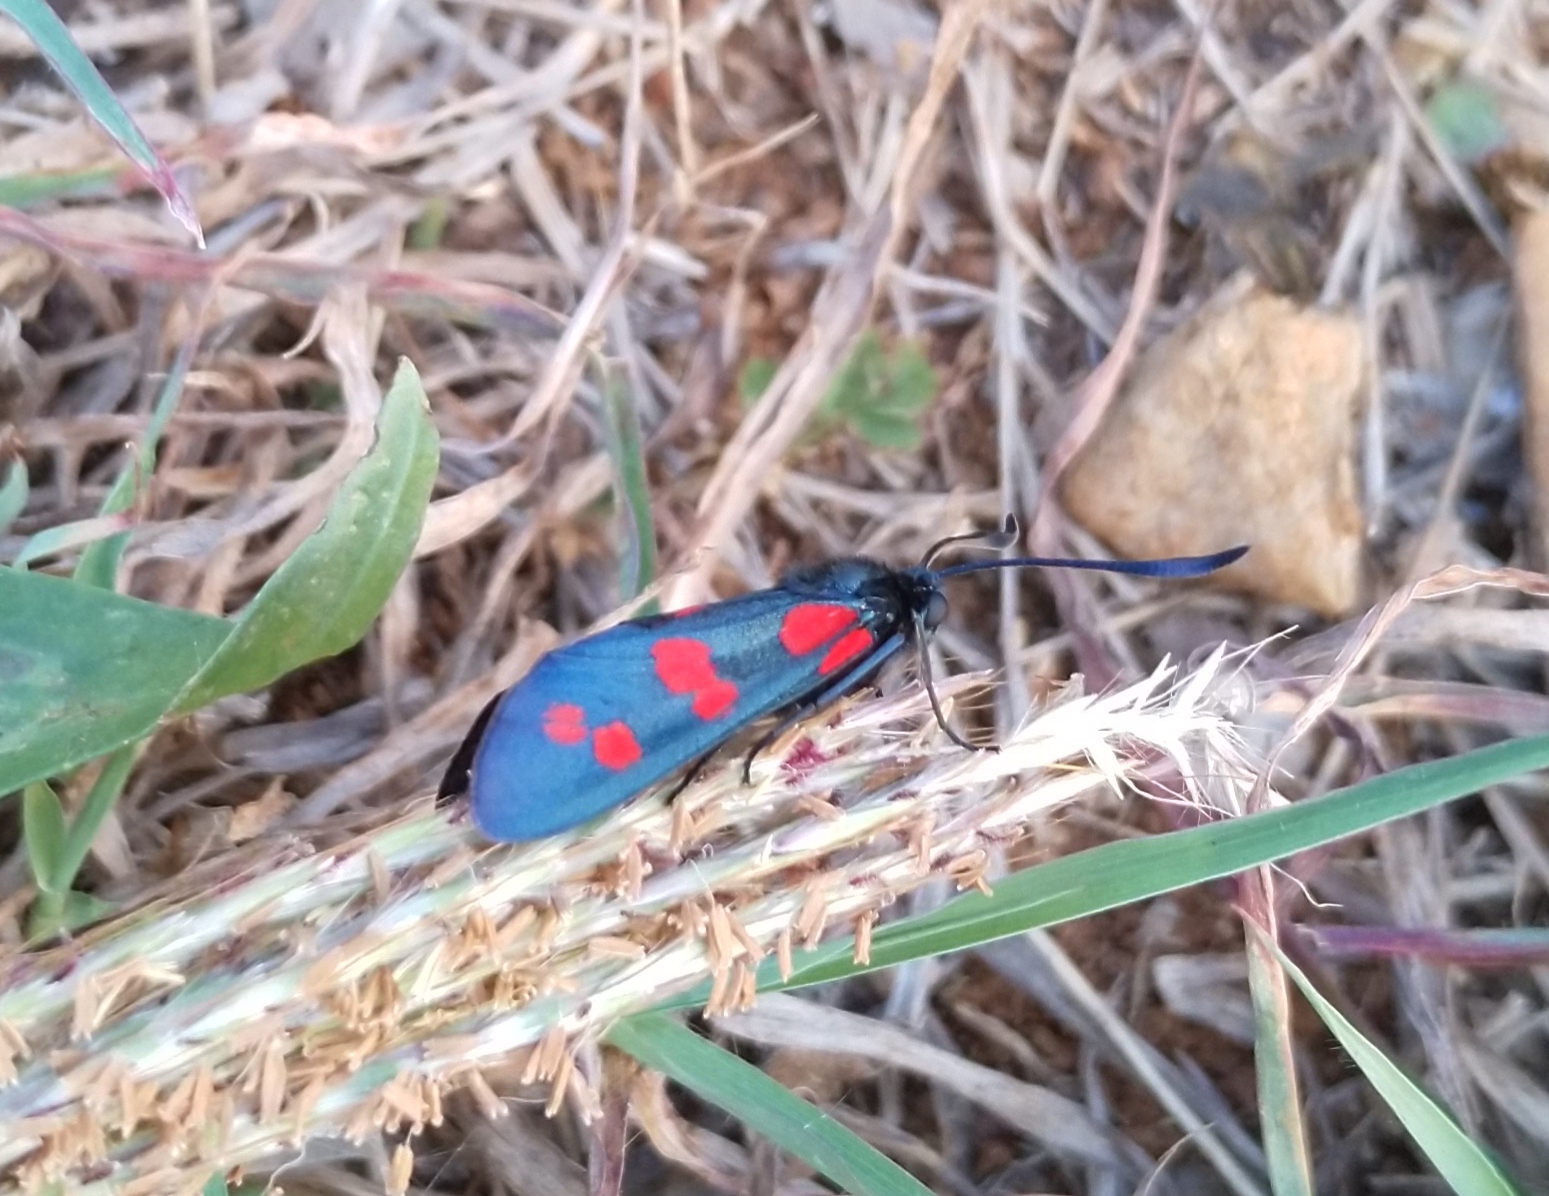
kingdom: Animalia
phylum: Arthropoda
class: Insecta
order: Lepidoptera
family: Zygaenidae
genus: Zygaena
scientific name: Zygaena filipendulae
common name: Six-spot burnet
